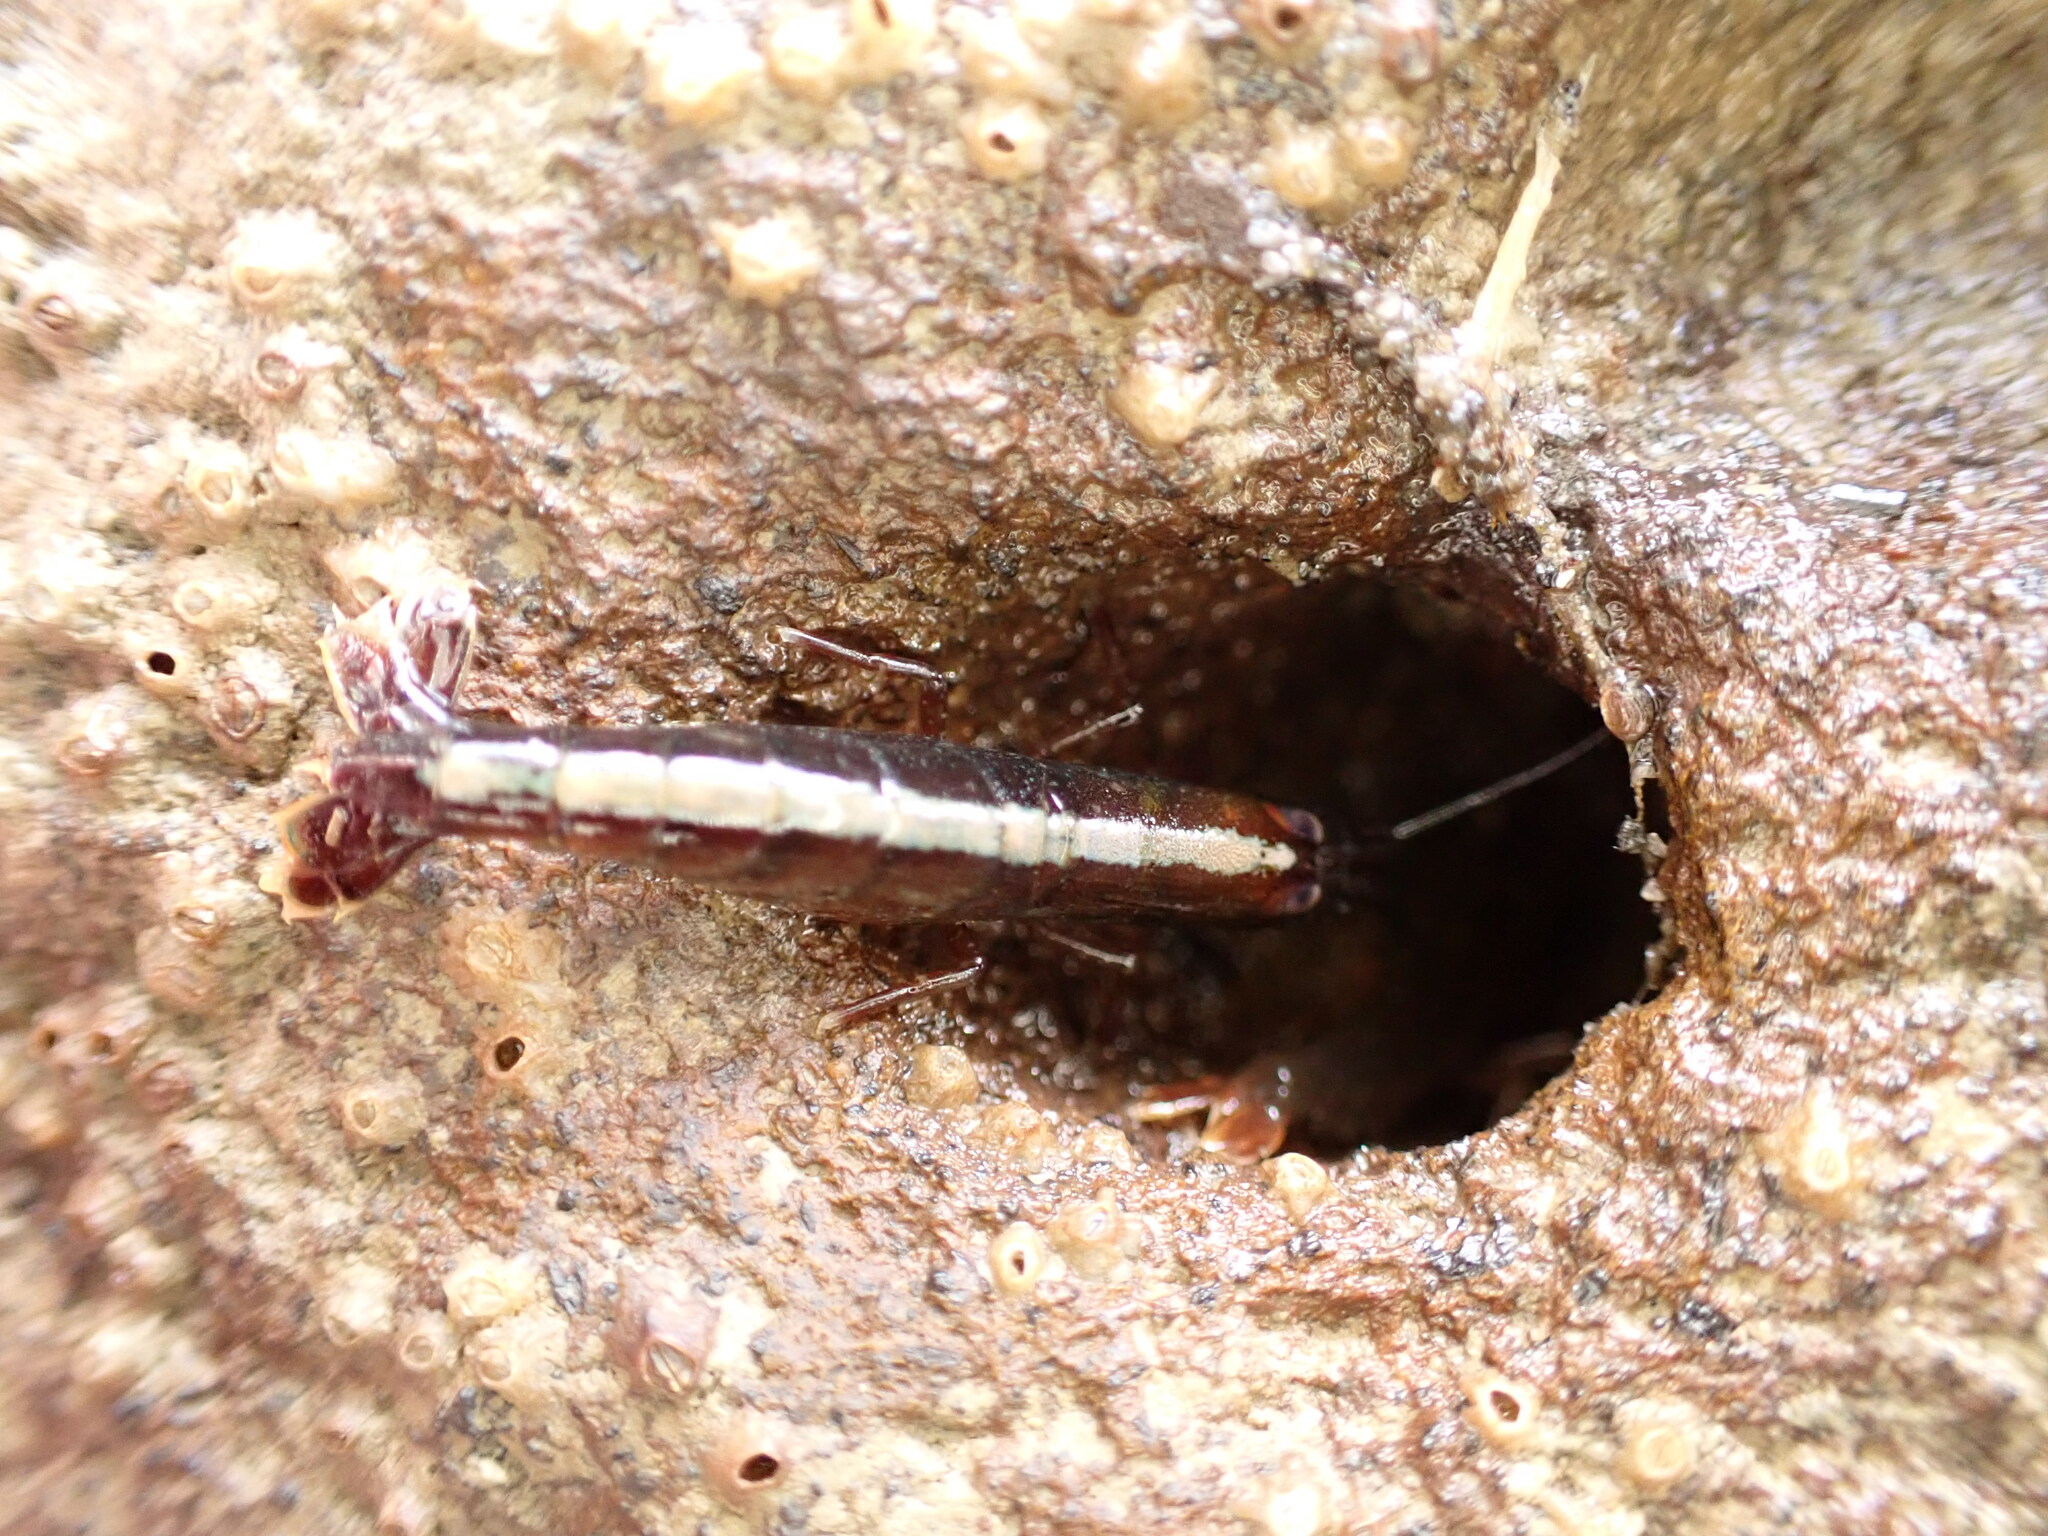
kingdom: Animalia
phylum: Arthropoda
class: Malacostraca
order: Decapoda
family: Alpheidae
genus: Betaeopsis
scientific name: Betaeopsis aequimanus
